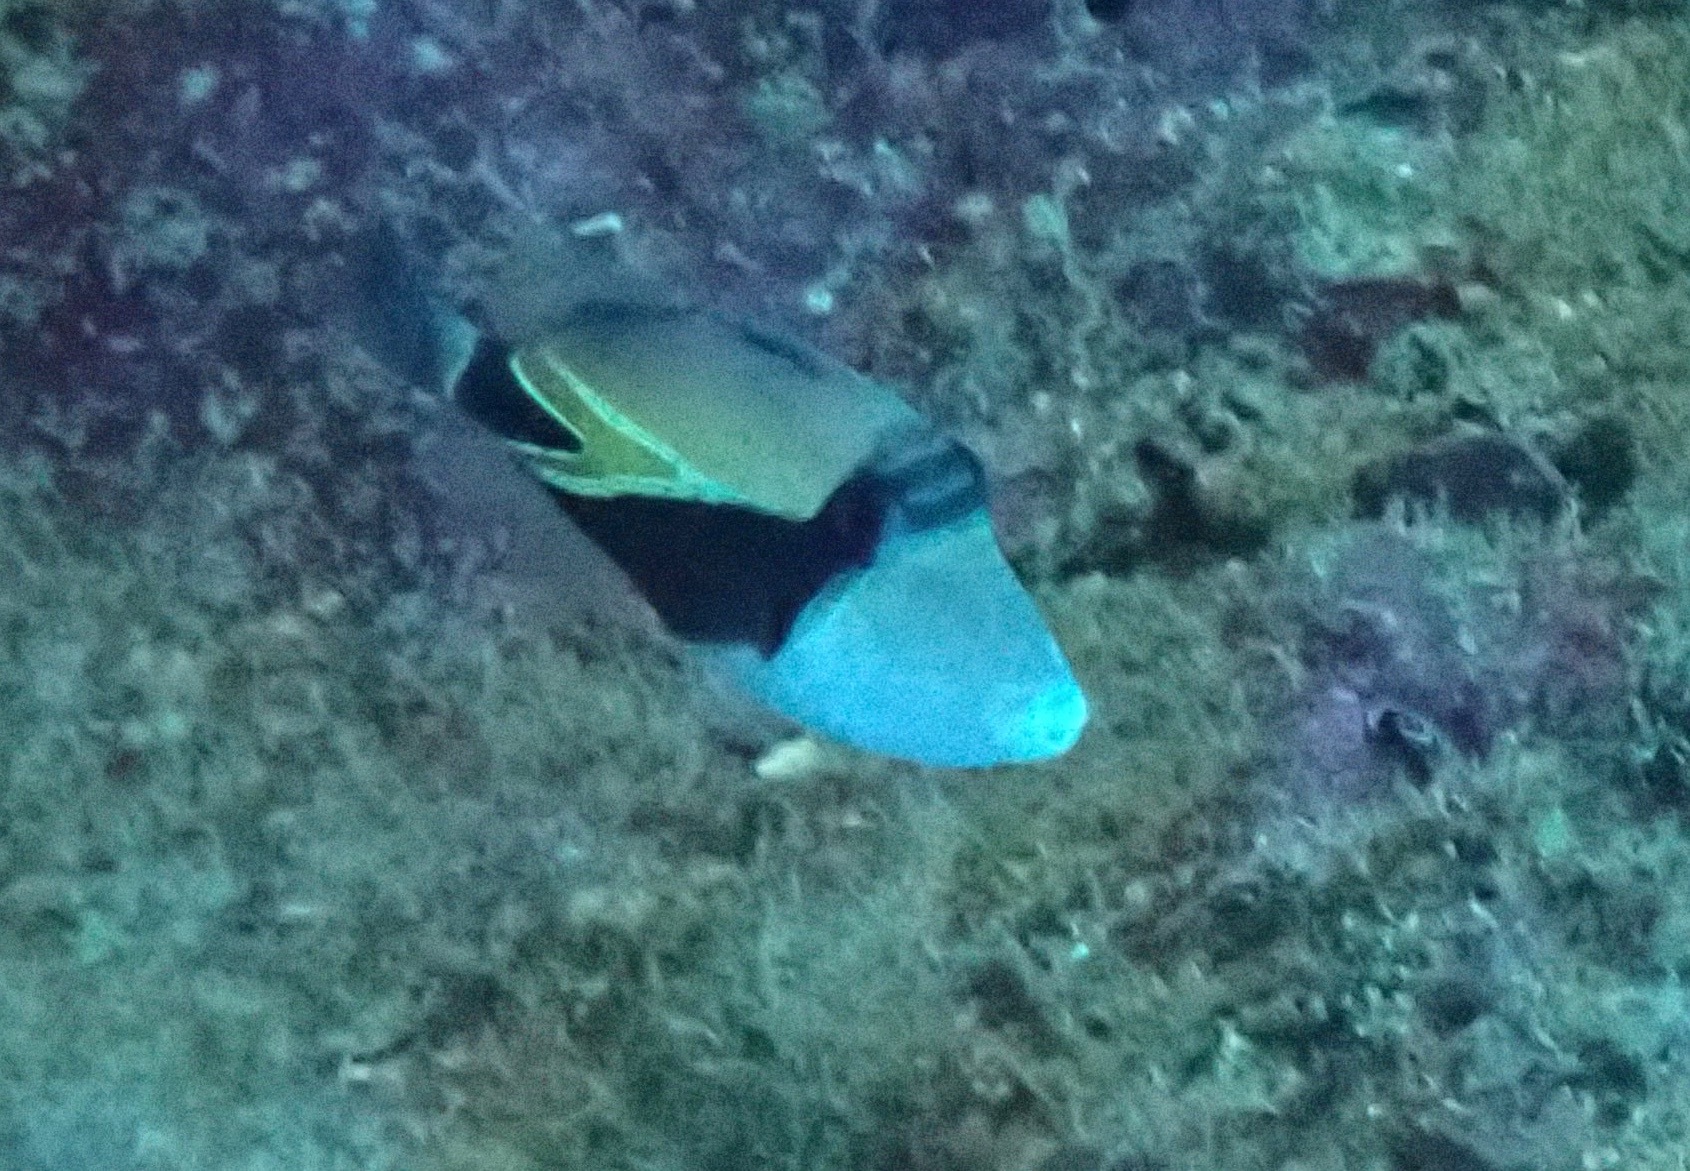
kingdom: Animalia
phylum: Chordata
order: Tetraodontiformes
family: Balistidae
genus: Rhinecanthus
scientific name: Rhinecanthus rectangulus
